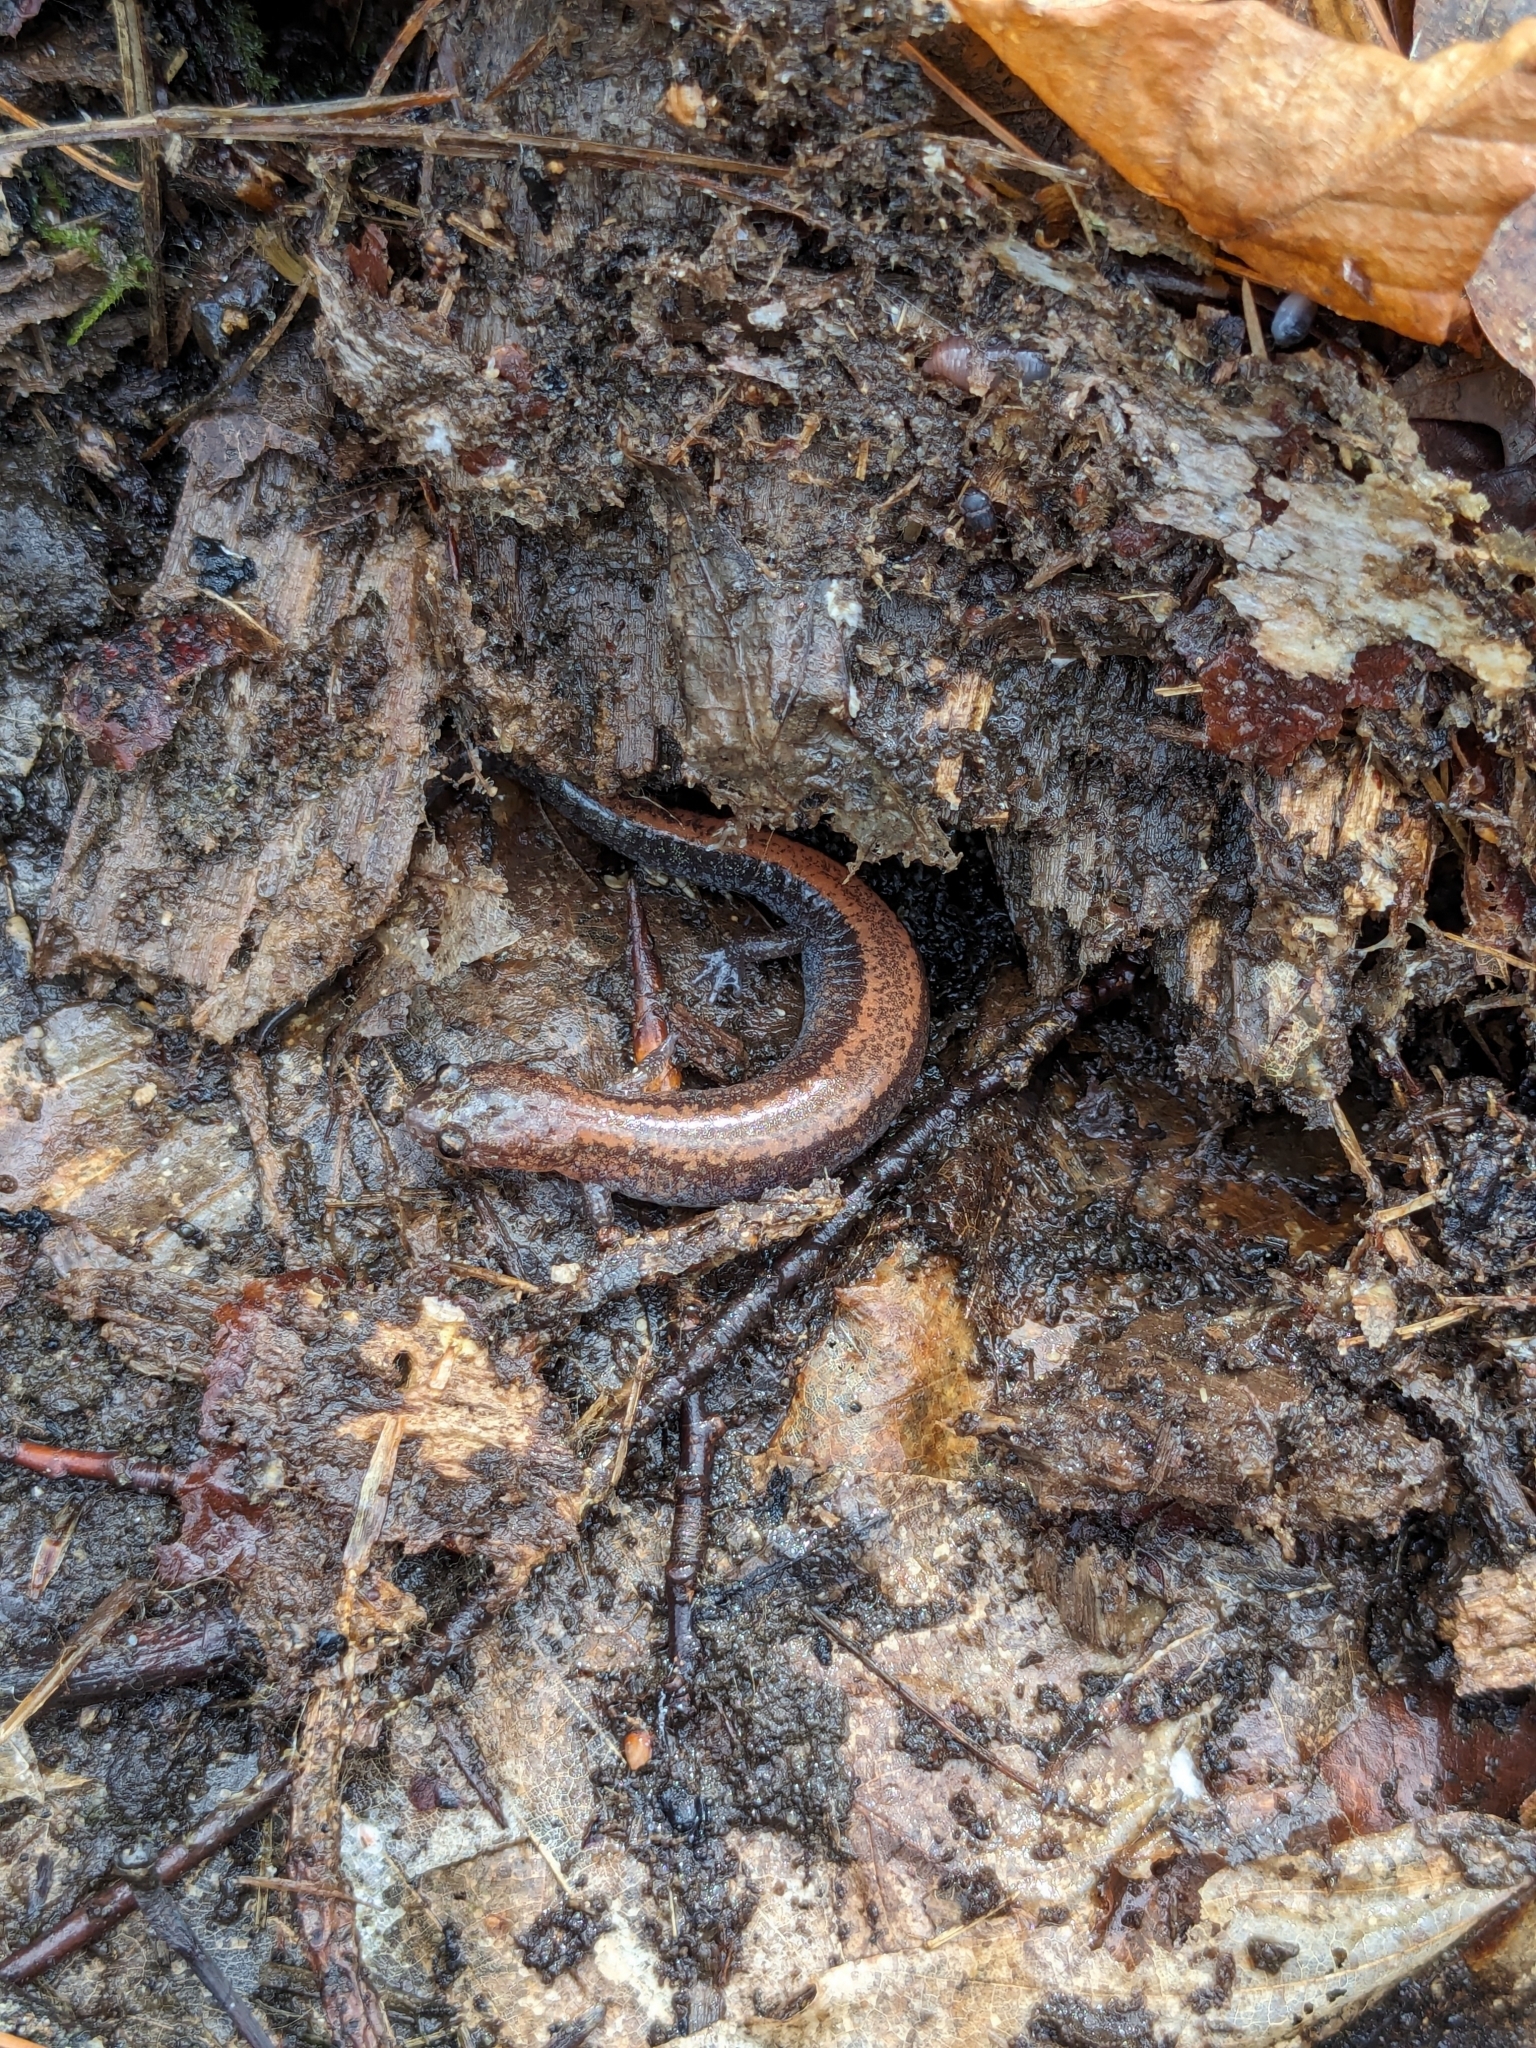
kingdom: Animalia
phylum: Chordata
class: Amphibia
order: Caudata
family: Plethodontidae
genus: Plethodon
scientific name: Plethodon cinereus
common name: Redback salamander
